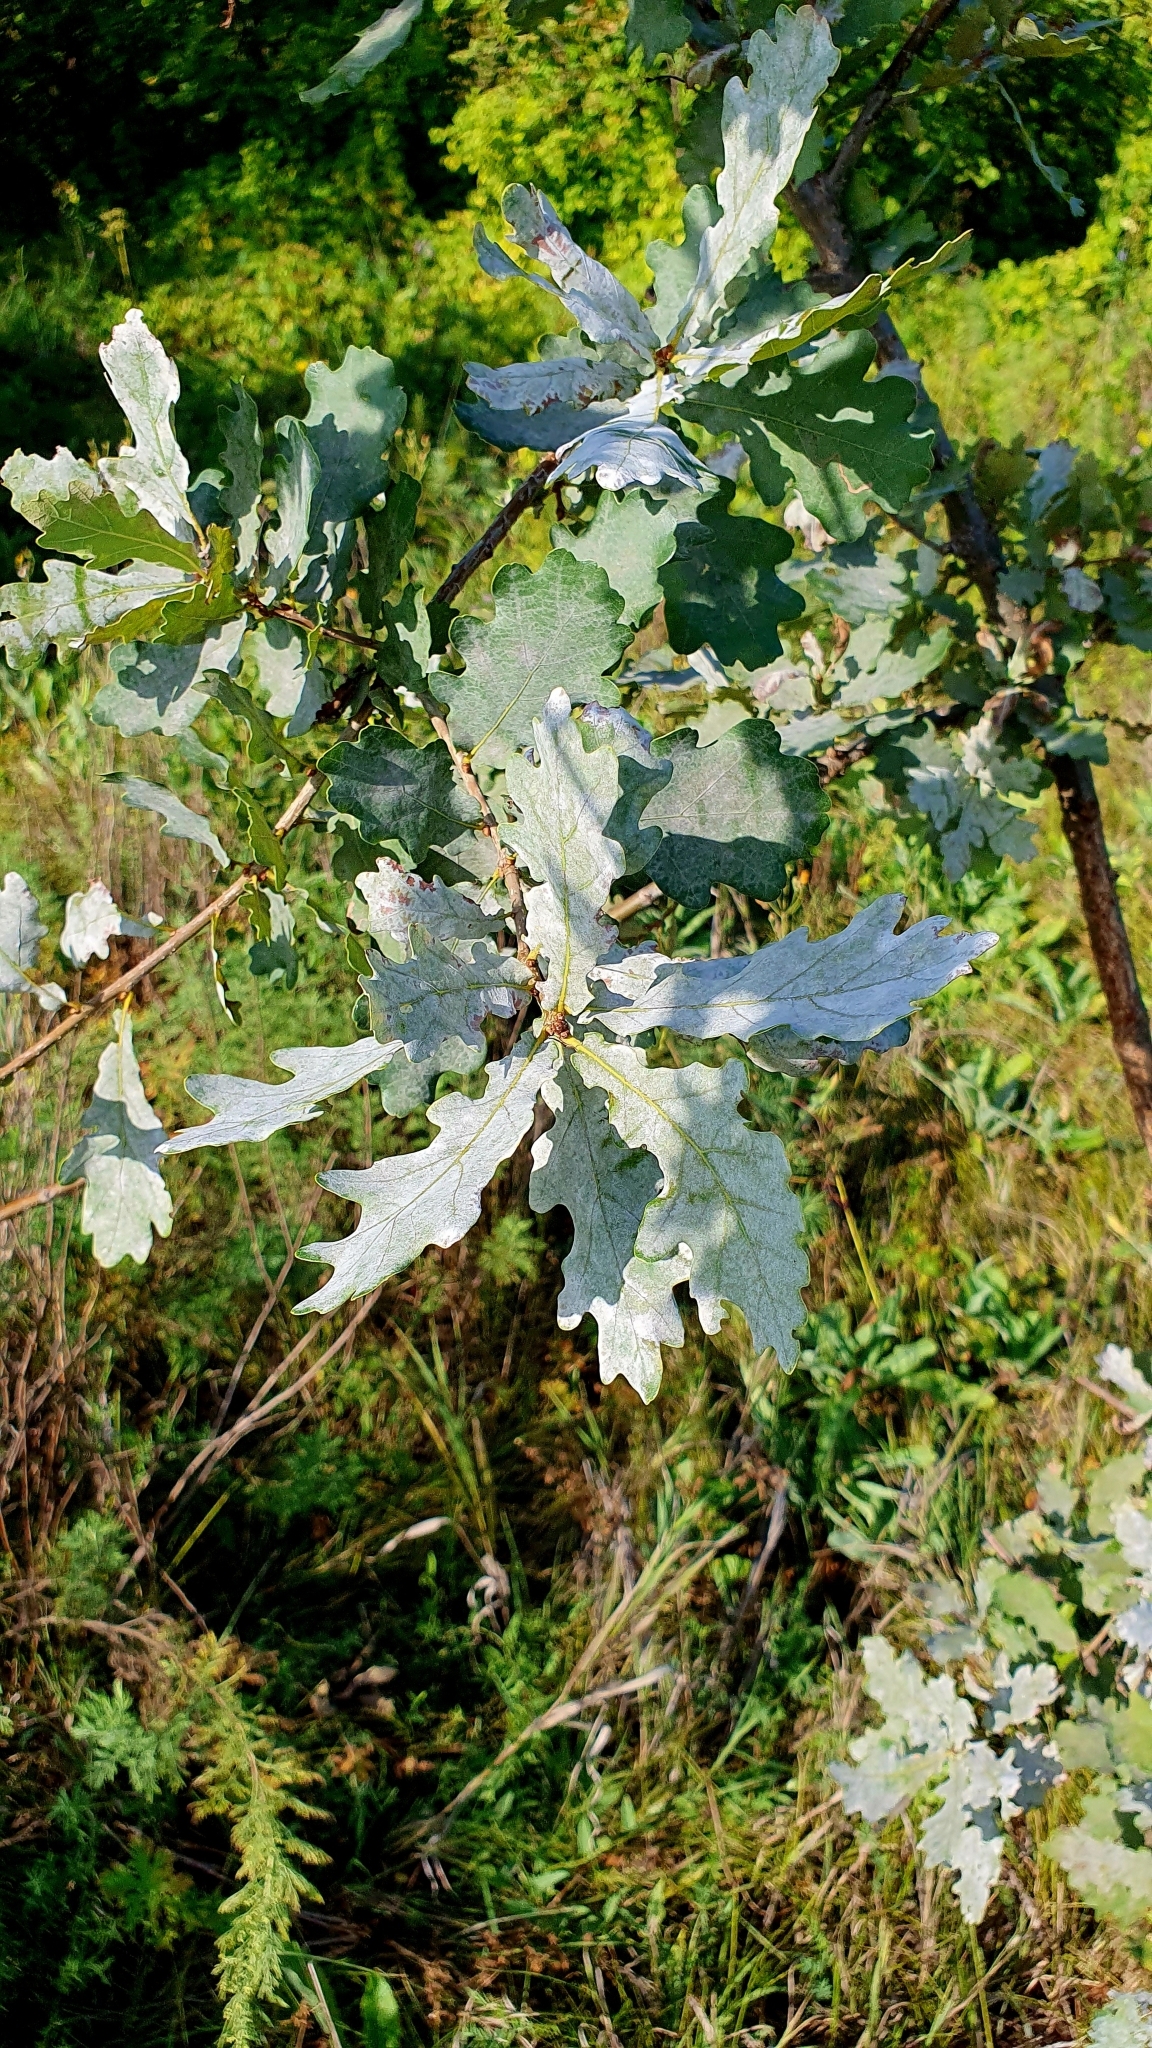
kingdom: Plantae
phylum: Tracheophyta
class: Magnoliopsida
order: Fagales
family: Fagaceae
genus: Quercus
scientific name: Quercus robur
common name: Pedunculate oak
